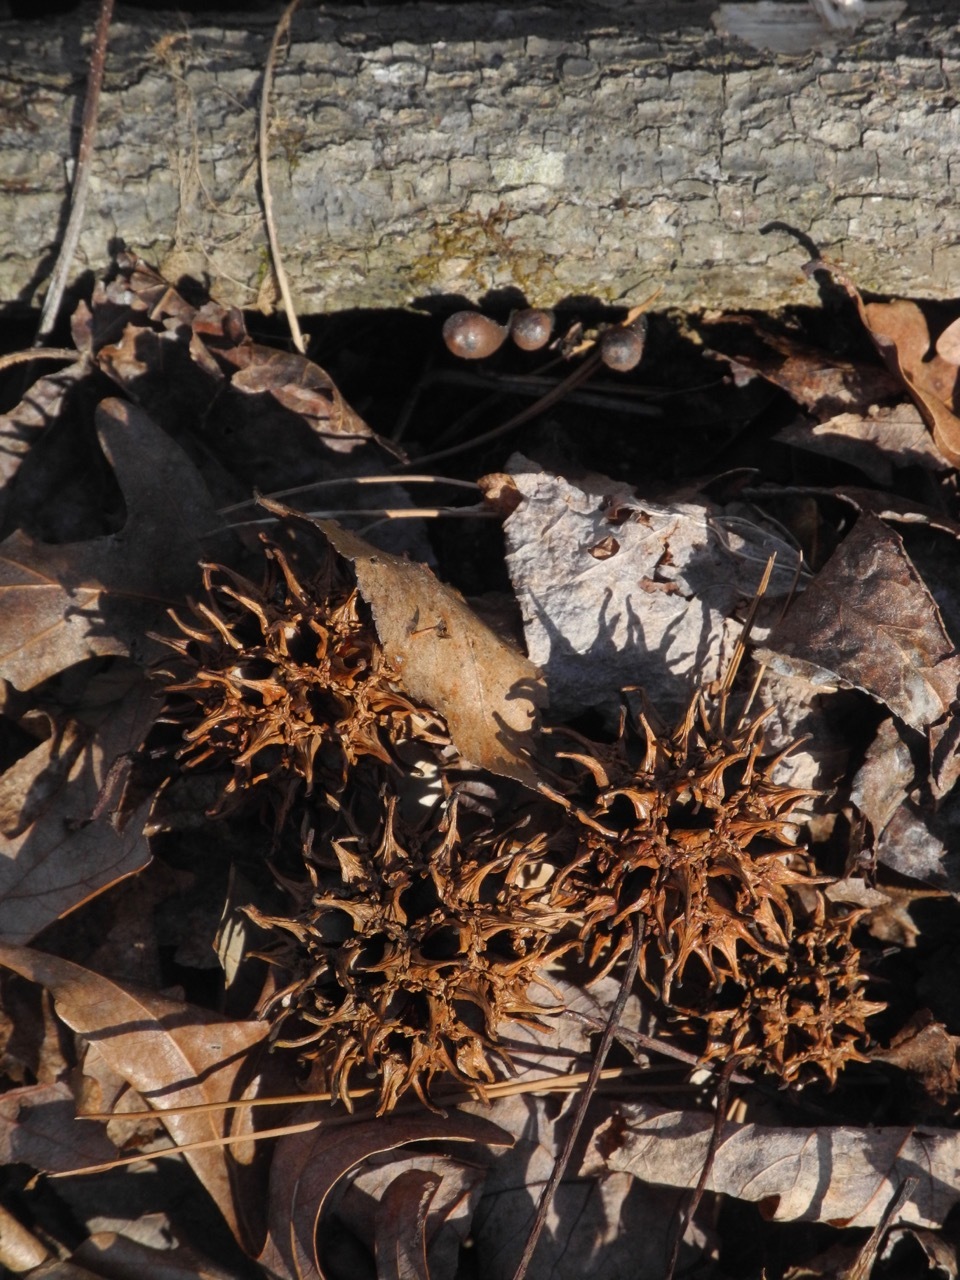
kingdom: Plantae
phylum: Tracheophyta
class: Magnoliopsida
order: Saxifragales
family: Altingiaceae
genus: Liquidambar
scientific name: Liquidambar styraciflua
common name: Sweet gum
